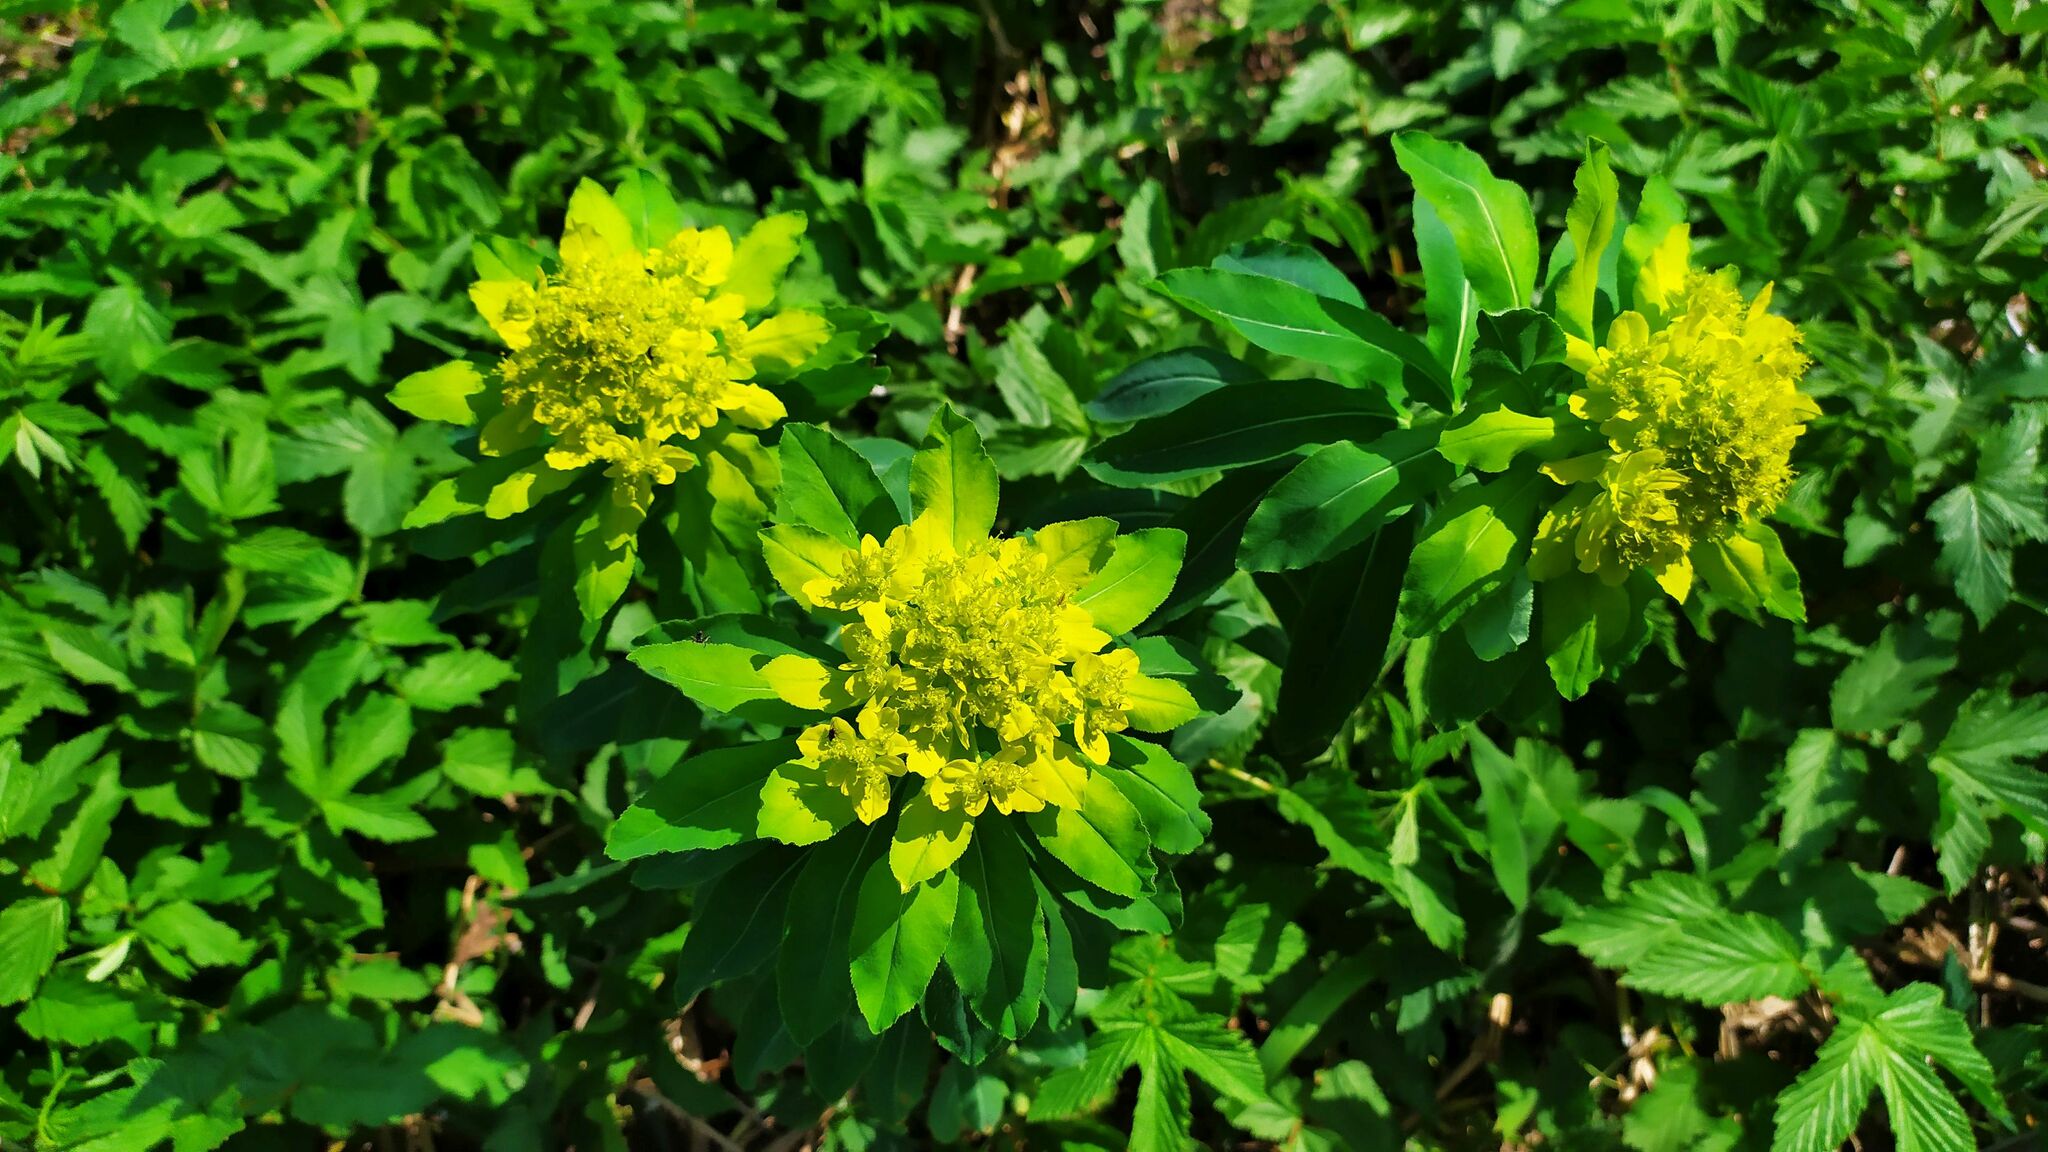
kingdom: Plantae
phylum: Tracheophyta
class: Magnoliopsida
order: Malpighiales
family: Euphorbiaceae
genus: Euphorbia
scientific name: Euphorbia pilosa
